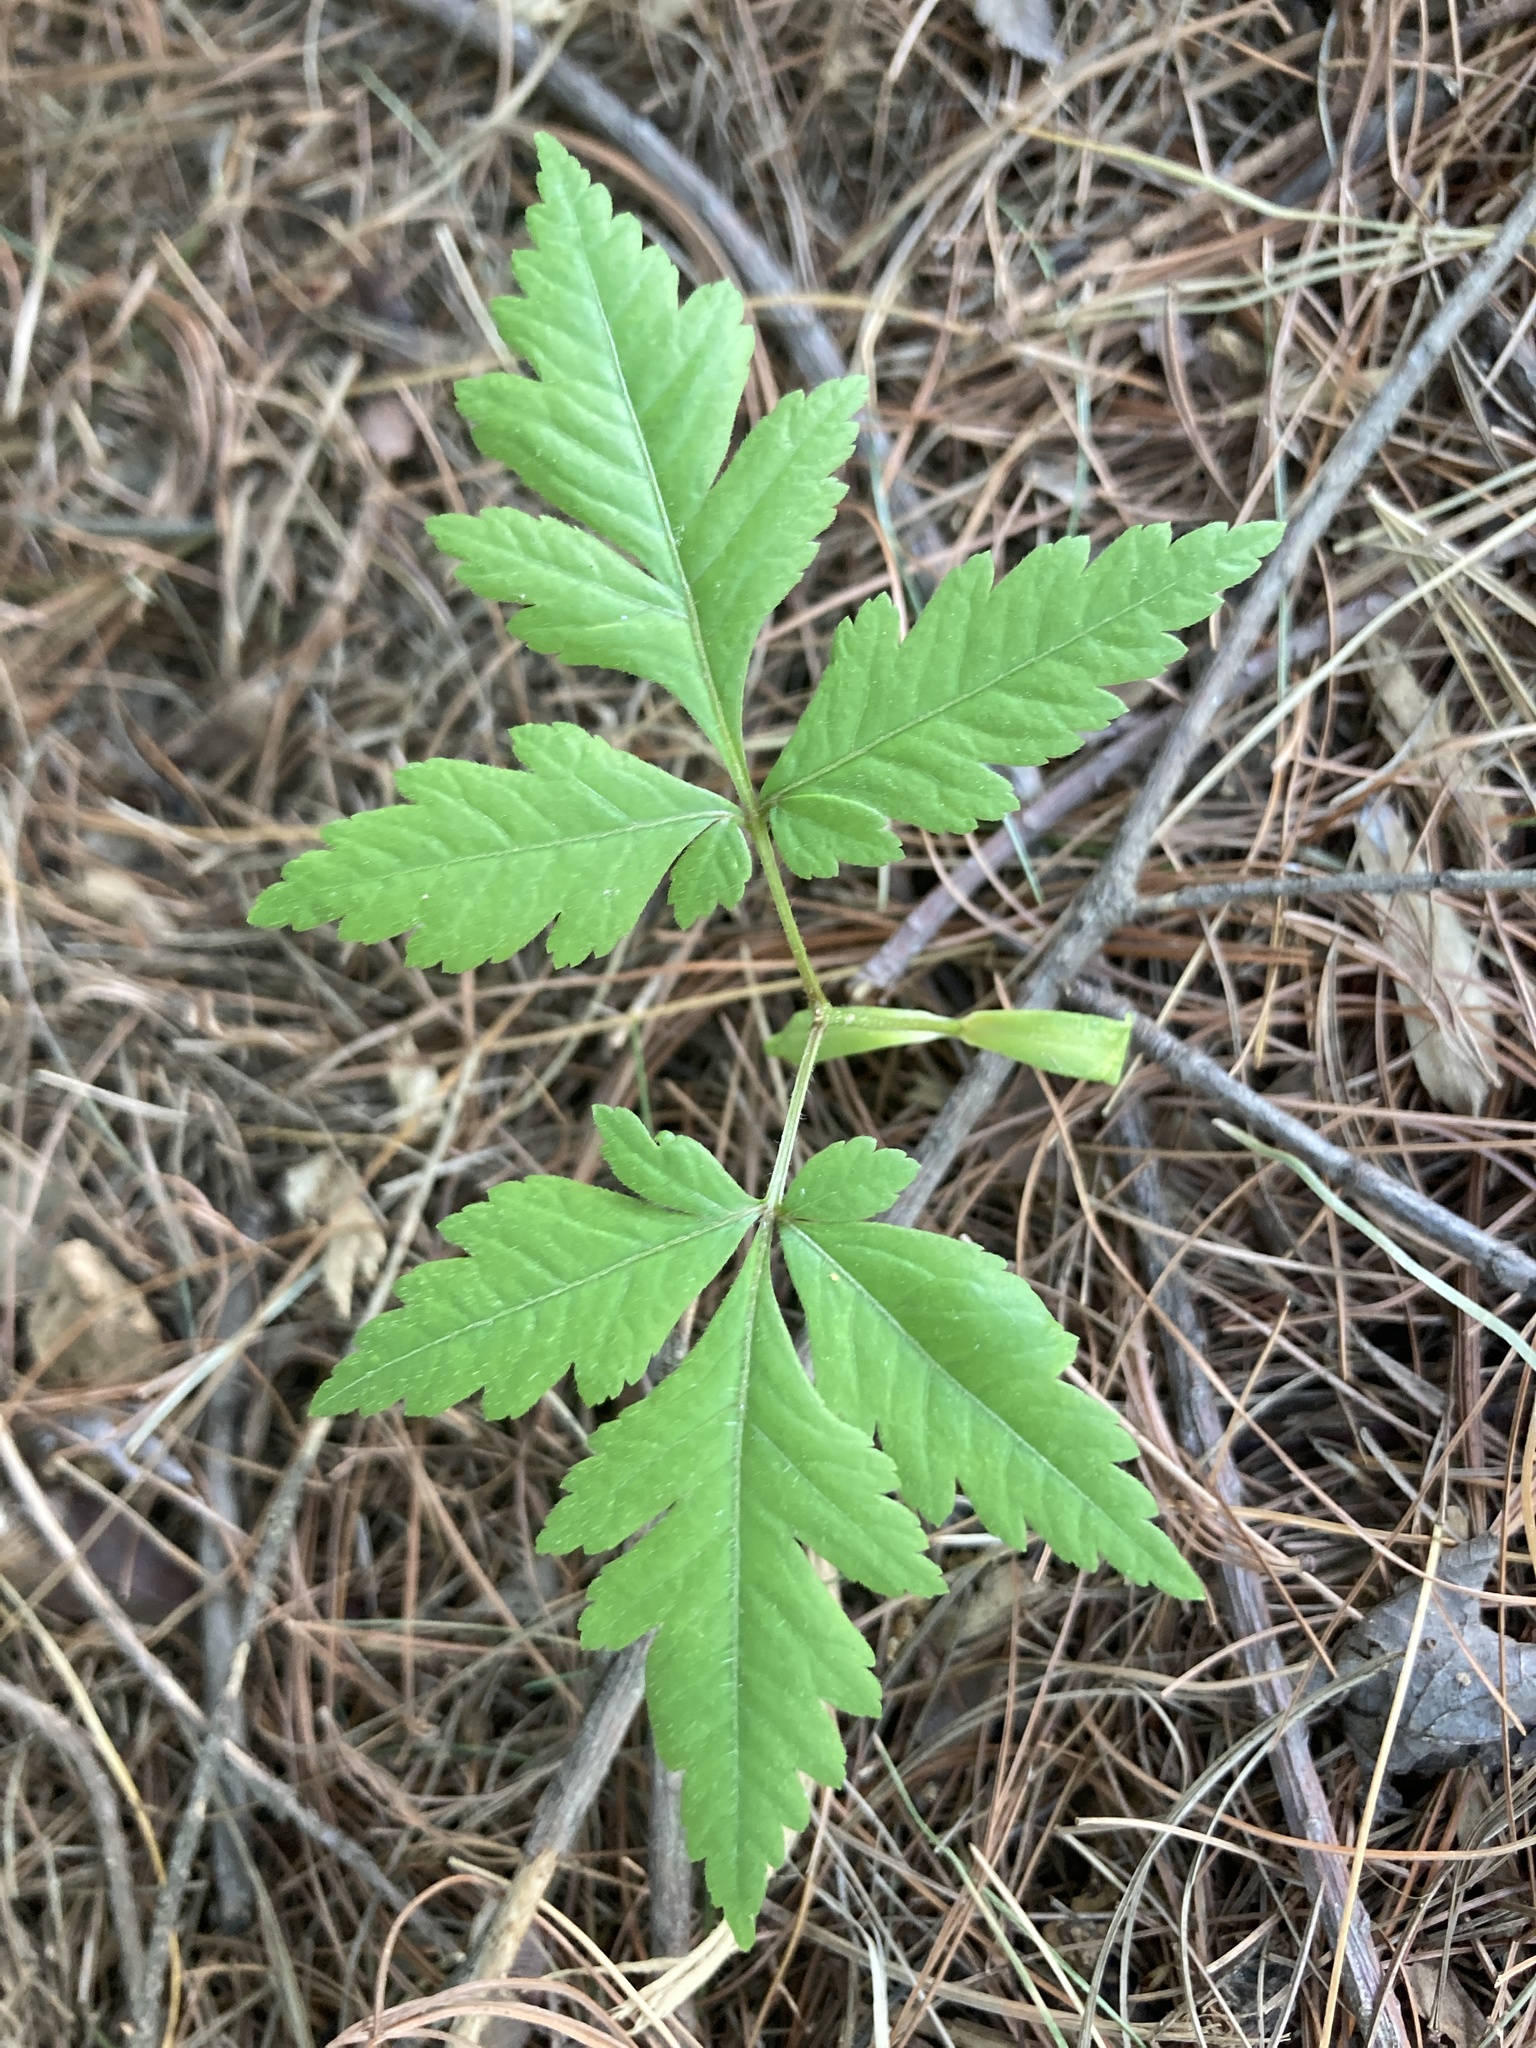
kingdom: Plantae
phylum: Tracheophyta
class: Magnoliopsida
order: Sapindales
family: Sapindaceae
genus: Koelreuteria
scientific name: Koelreuteria paniculata
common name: Pride-of-india
